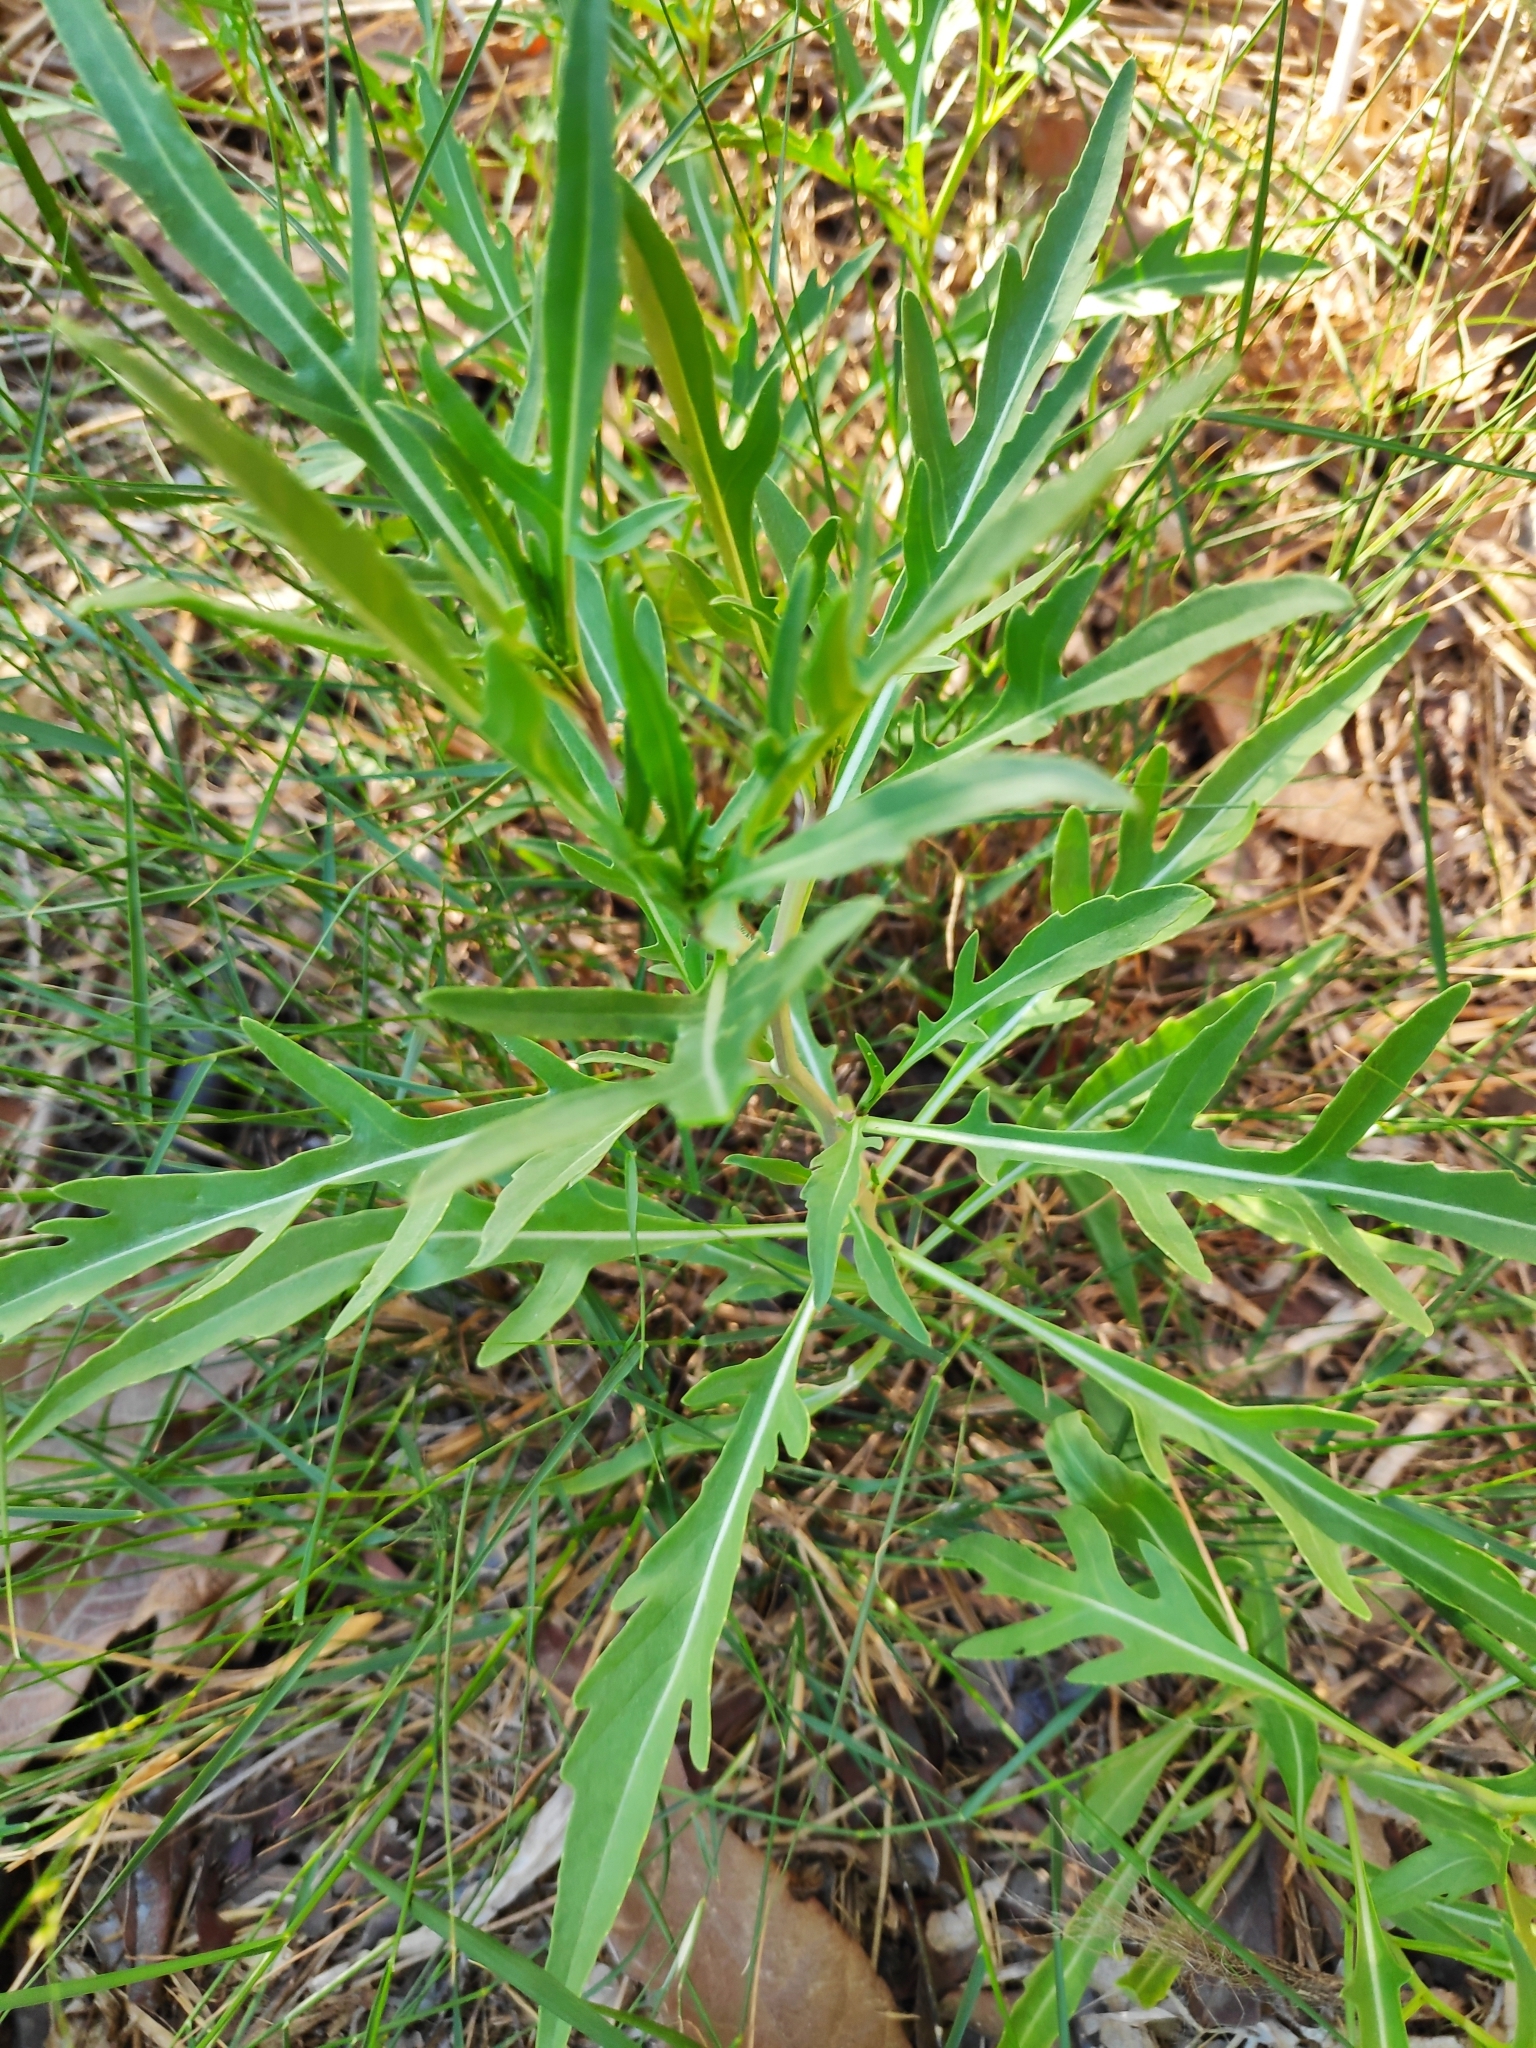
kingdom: Plantae
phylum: Tracheophyta
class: Magnoliopsida
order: Brassicales
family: Brassicaceae
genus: Diplotaxis
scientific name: Diplotaxis tenuifolia
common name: Perennial wall-rocket
